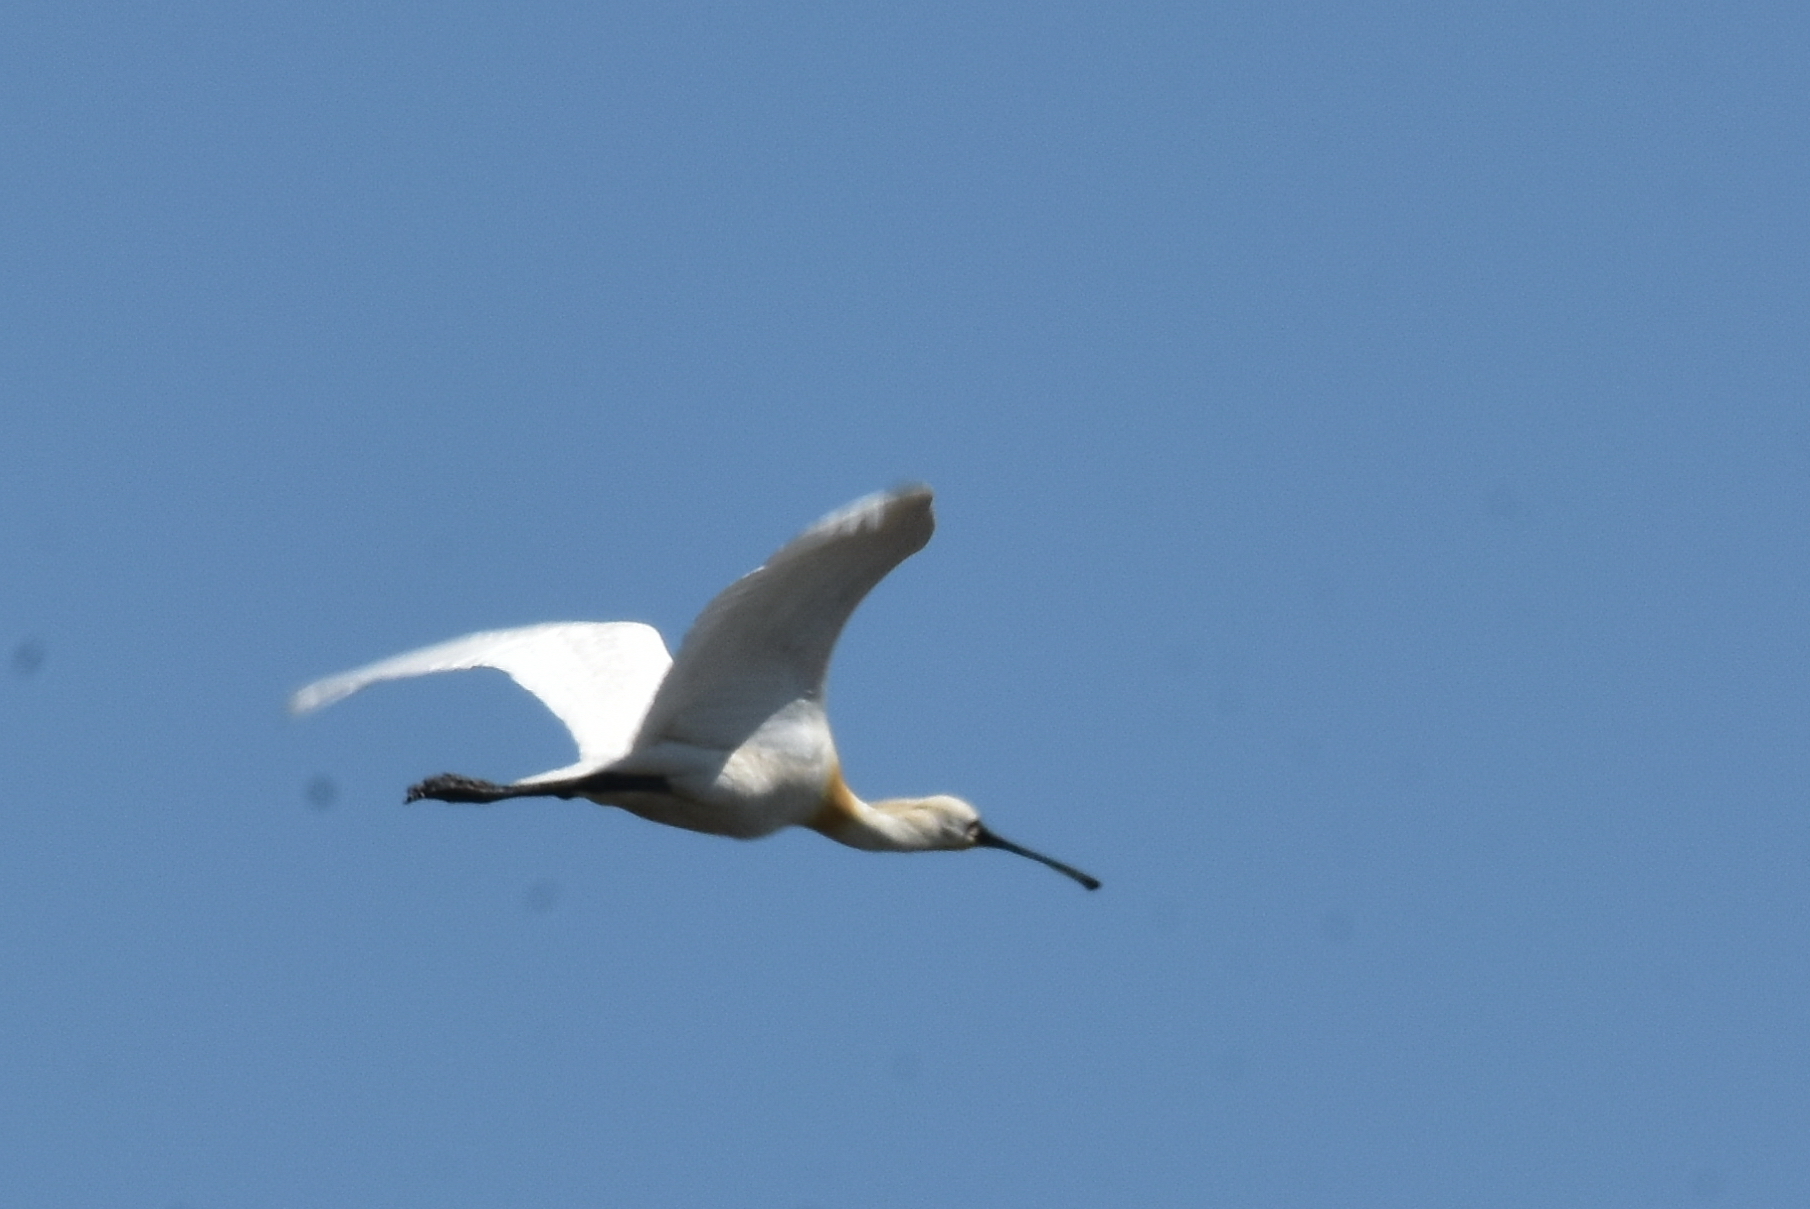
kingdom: Animalia
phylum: Chordata
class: Aves
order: Pelecaniformes
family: Threskiornithidae
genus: Platalea
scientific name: Platalea leucorodia
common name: Eurasian spoonbill
